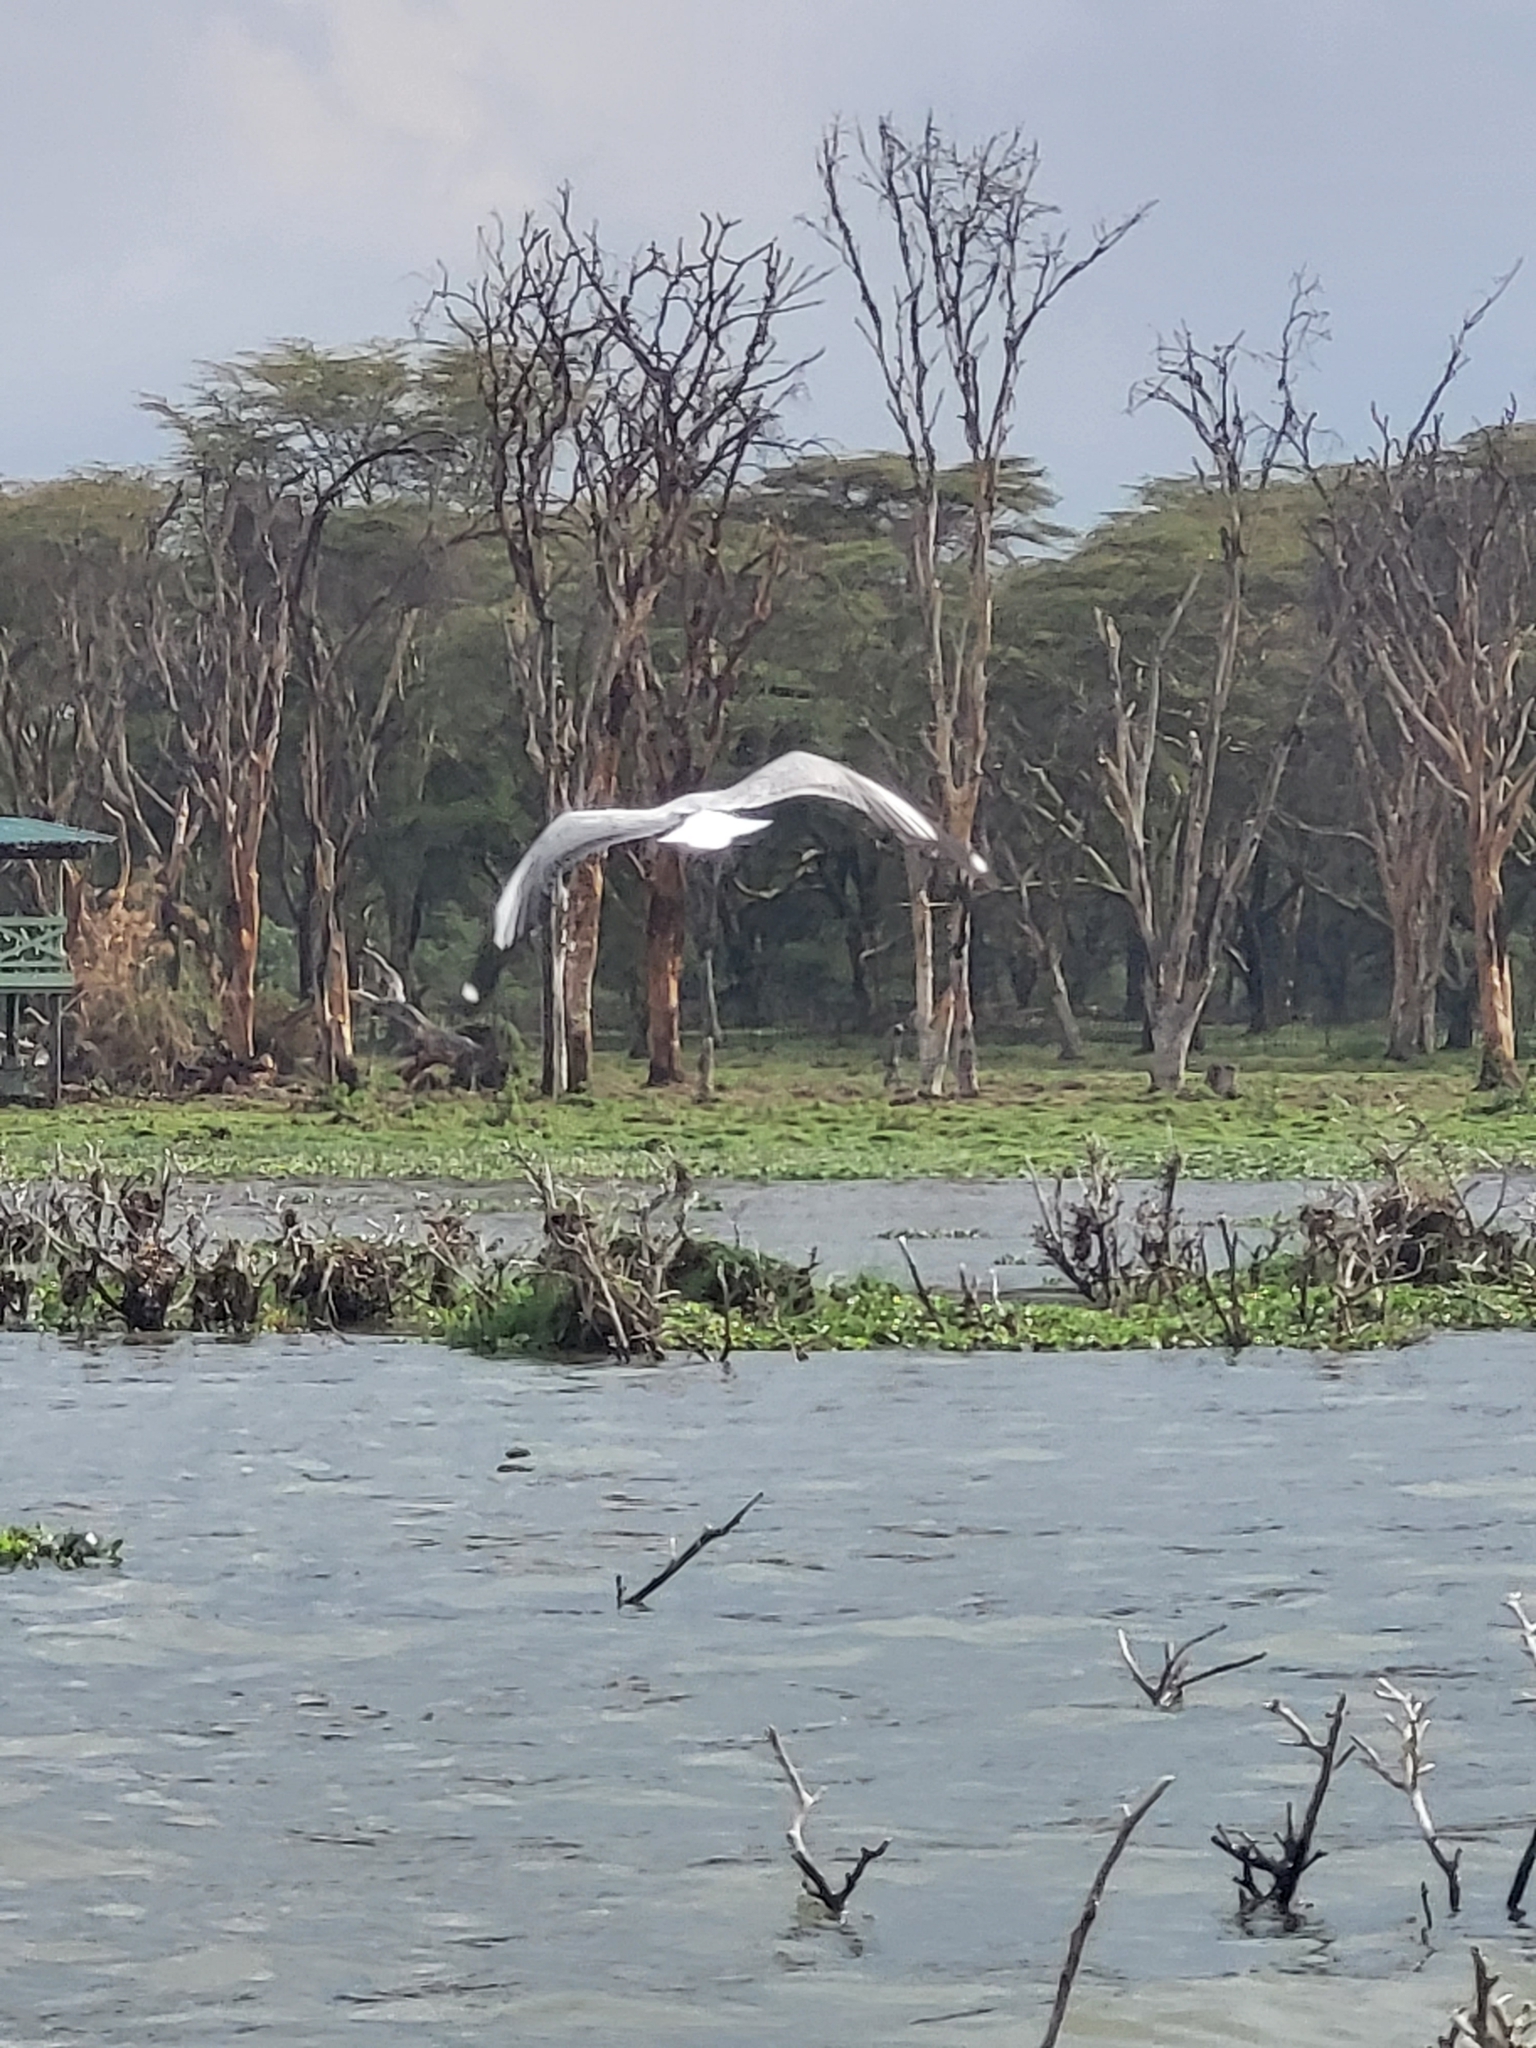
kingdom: Animalia
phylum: Chordata
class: Aves
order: Charadriiformes
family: Laridae
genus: Chroicocephalus
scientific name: Chroicocephalus cirrocephalus
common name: Grey-headed gull
